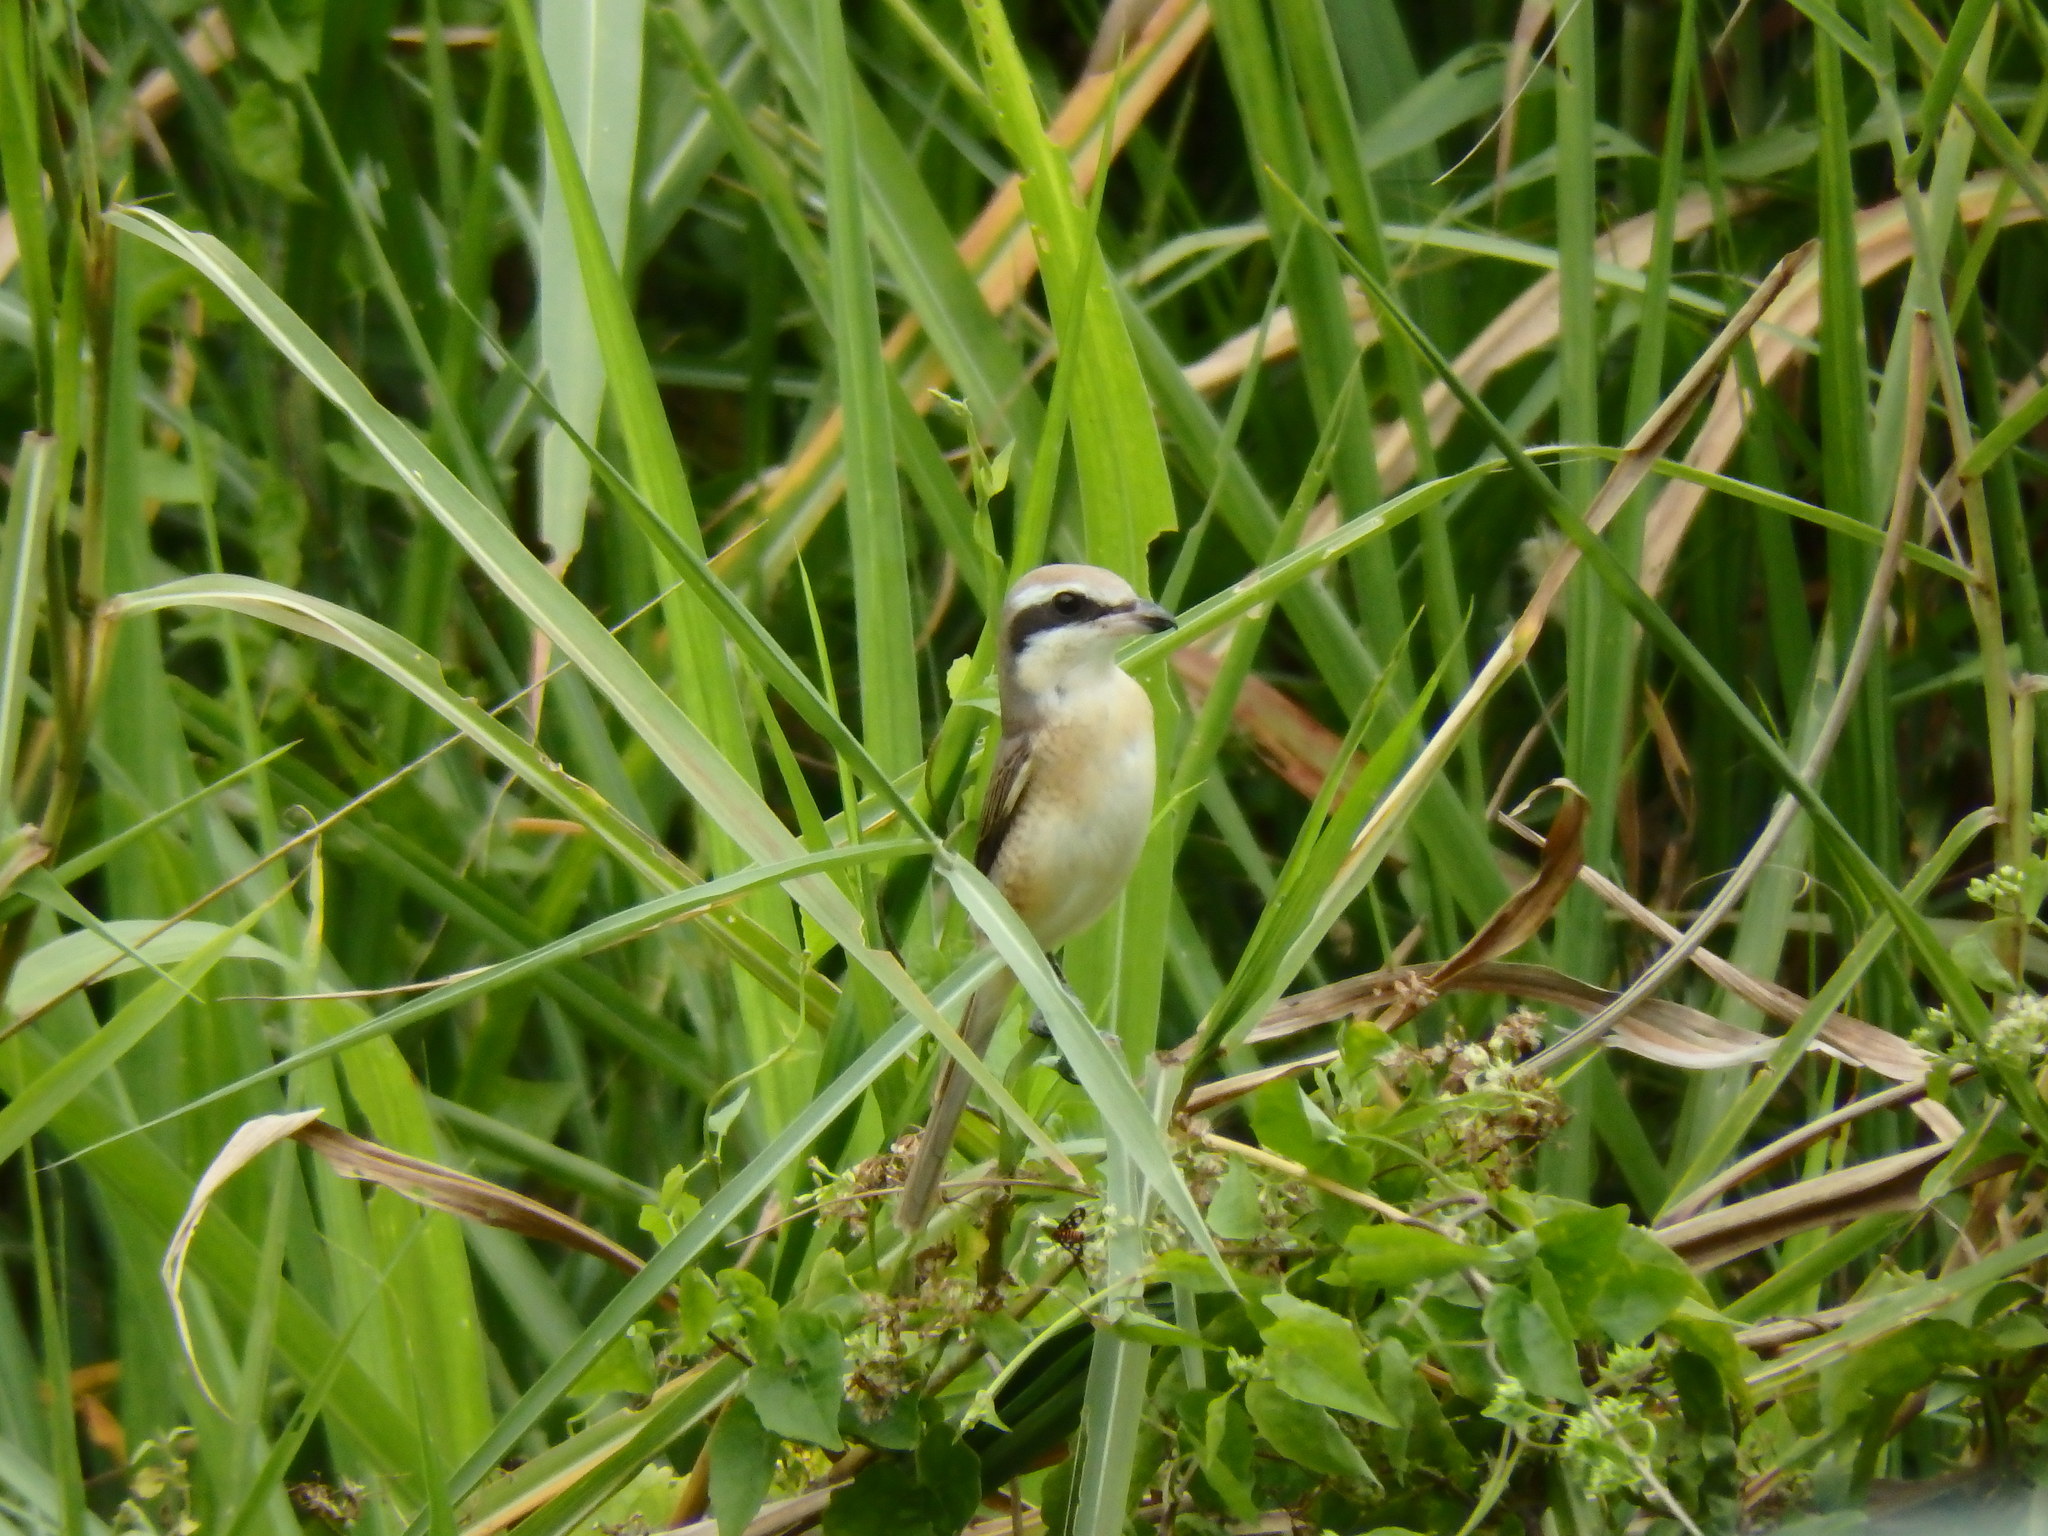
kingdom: Animalia
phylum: Chordata
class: Aves
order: Passeriformes
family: Laniidae
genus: Lanius
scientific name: Lanius cristatus
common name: Brown shrike
